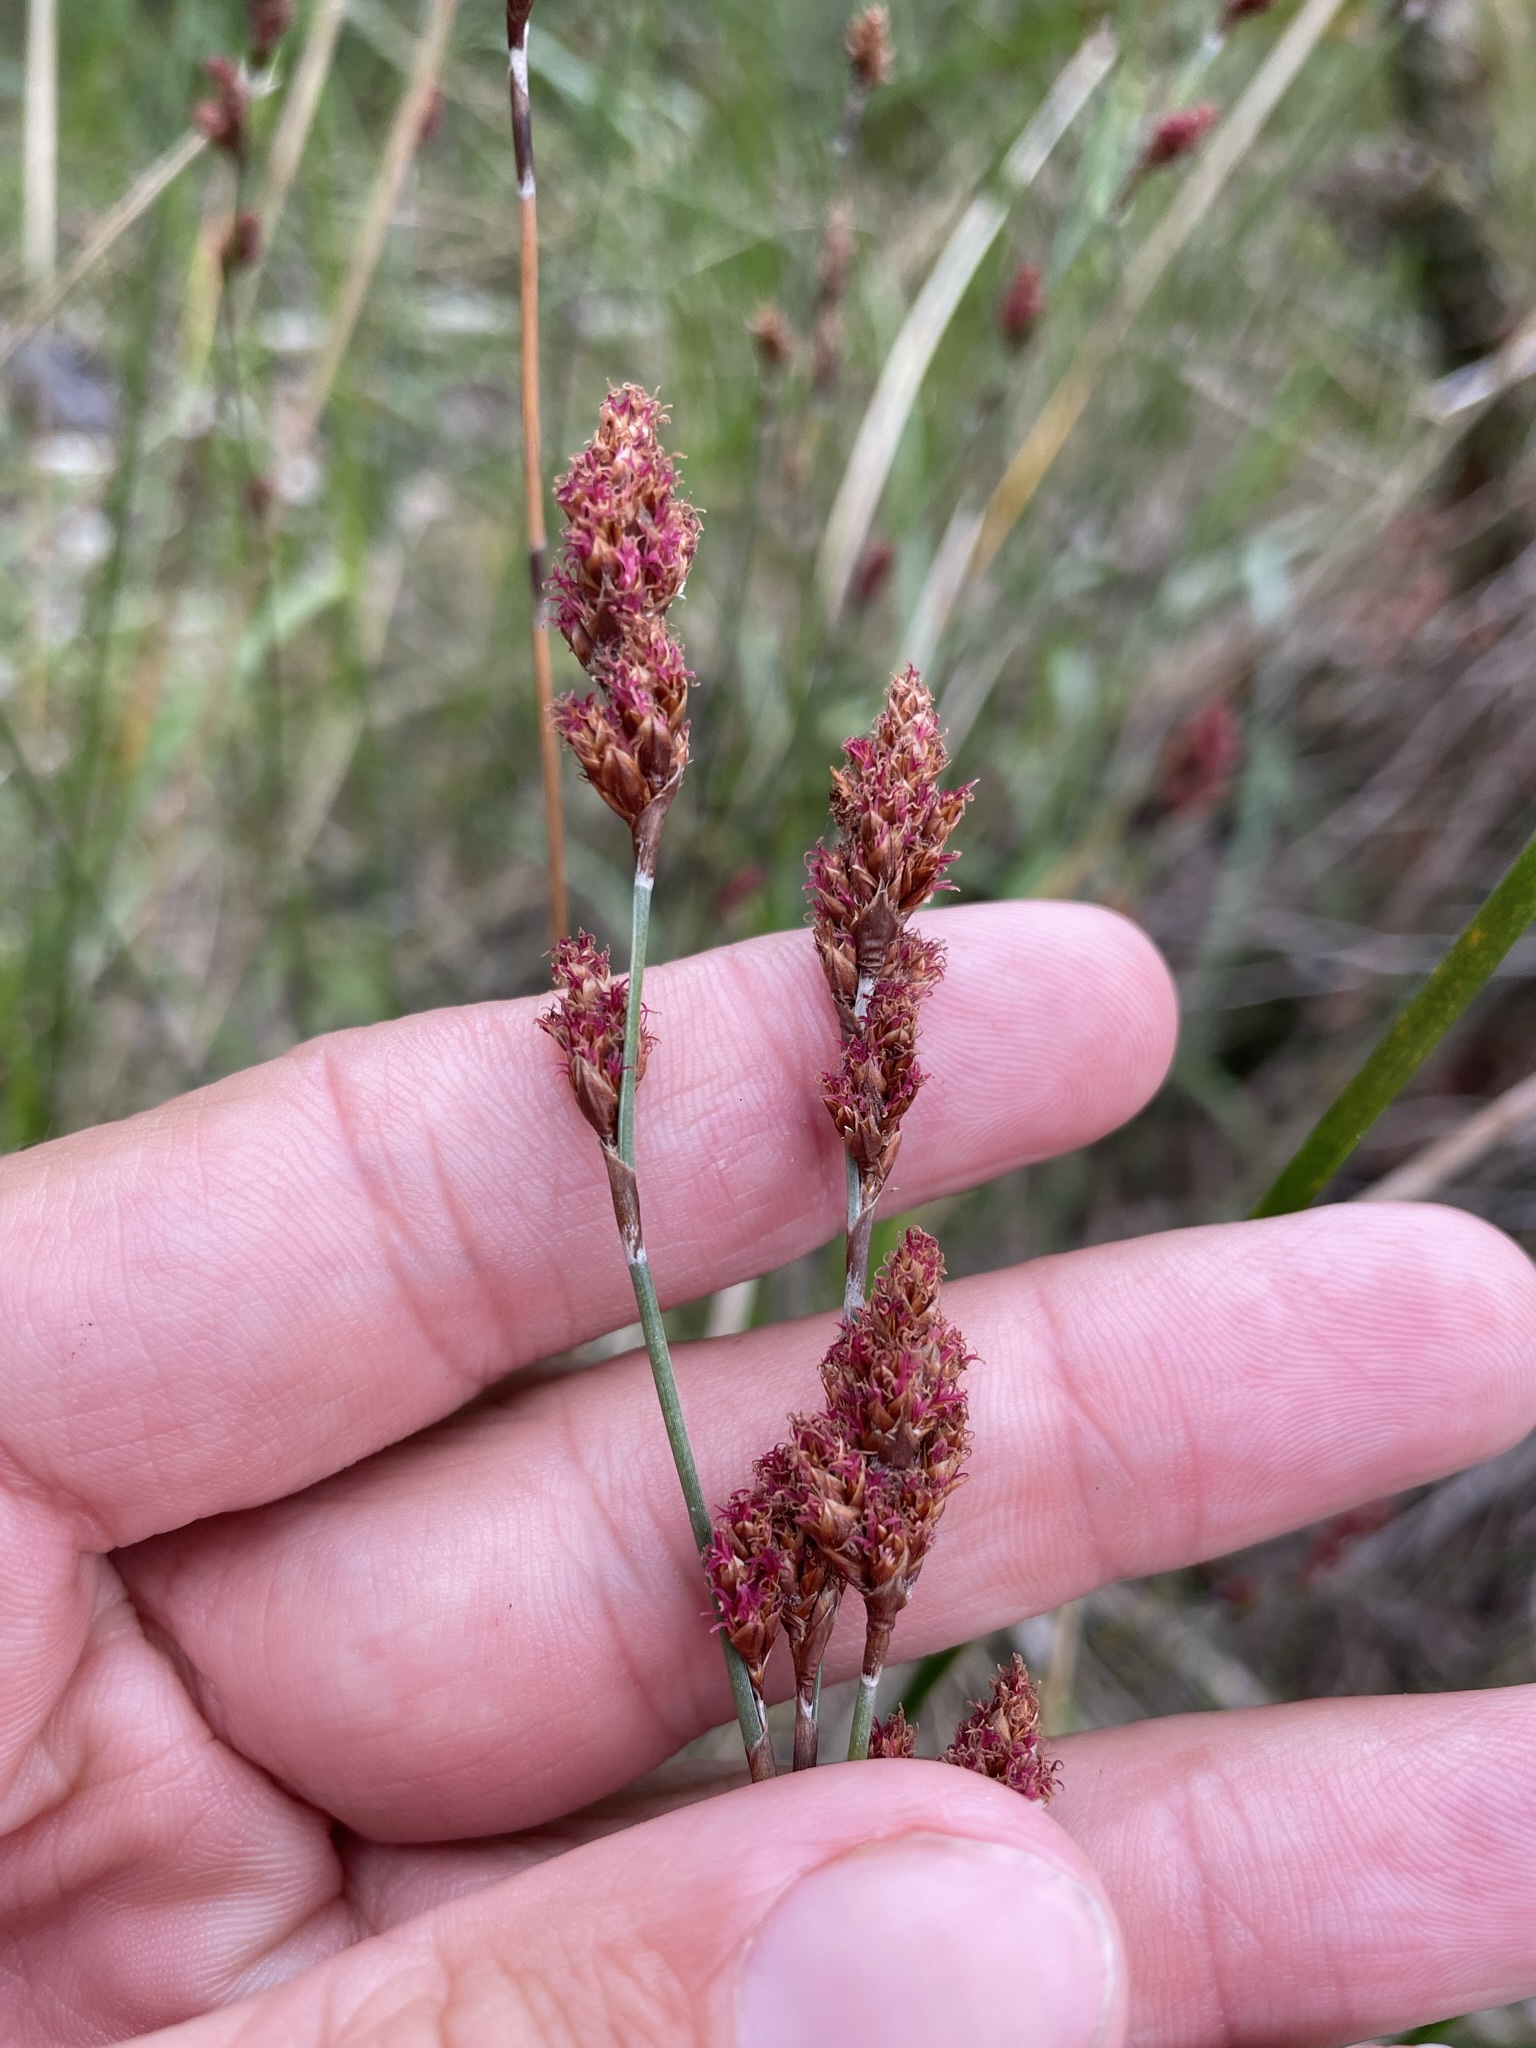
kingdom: Plantae
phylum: Tracheophyta
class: Liliopsida
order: Poales
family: Restionaceae
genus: Apodasmia
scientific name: Apodasmia similis
